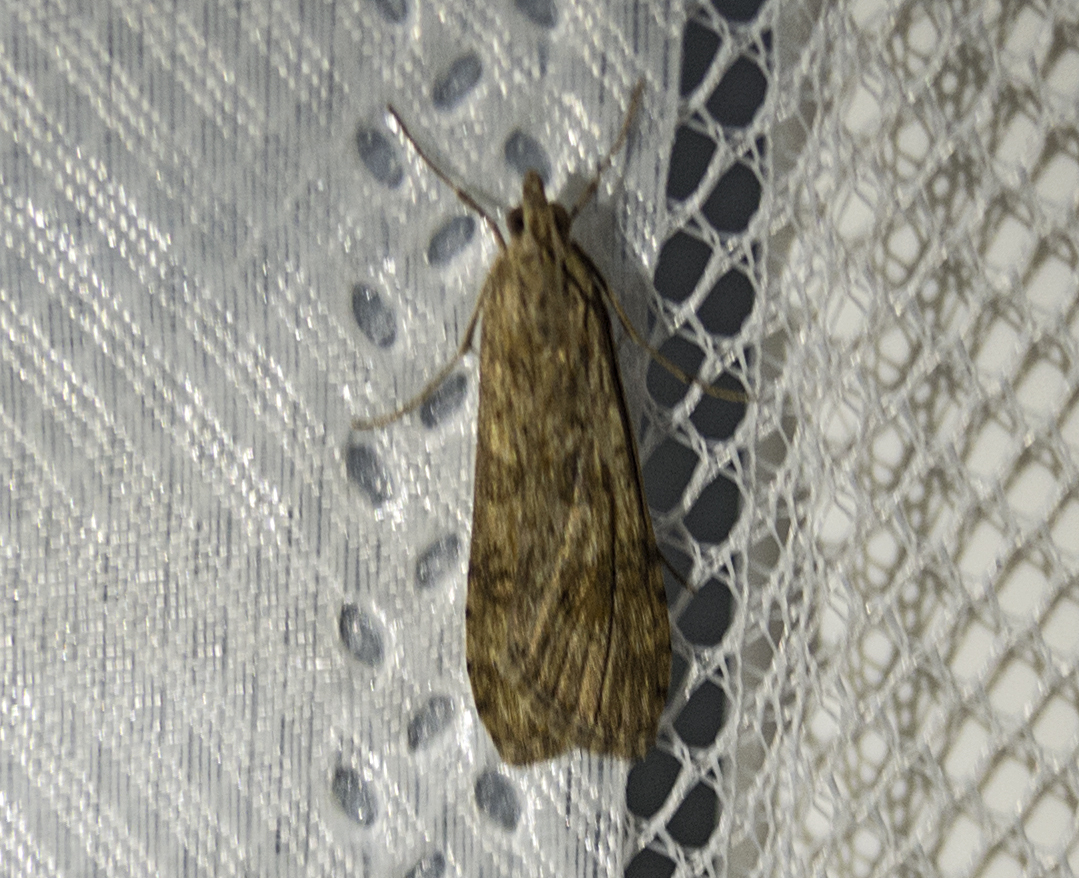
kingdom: Animalia
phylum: Arthropoda
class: Insecta
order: Lepidoptera
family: Crambidae
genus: Nomophila
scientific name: Nomophila noctuella
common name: Rush veneer
